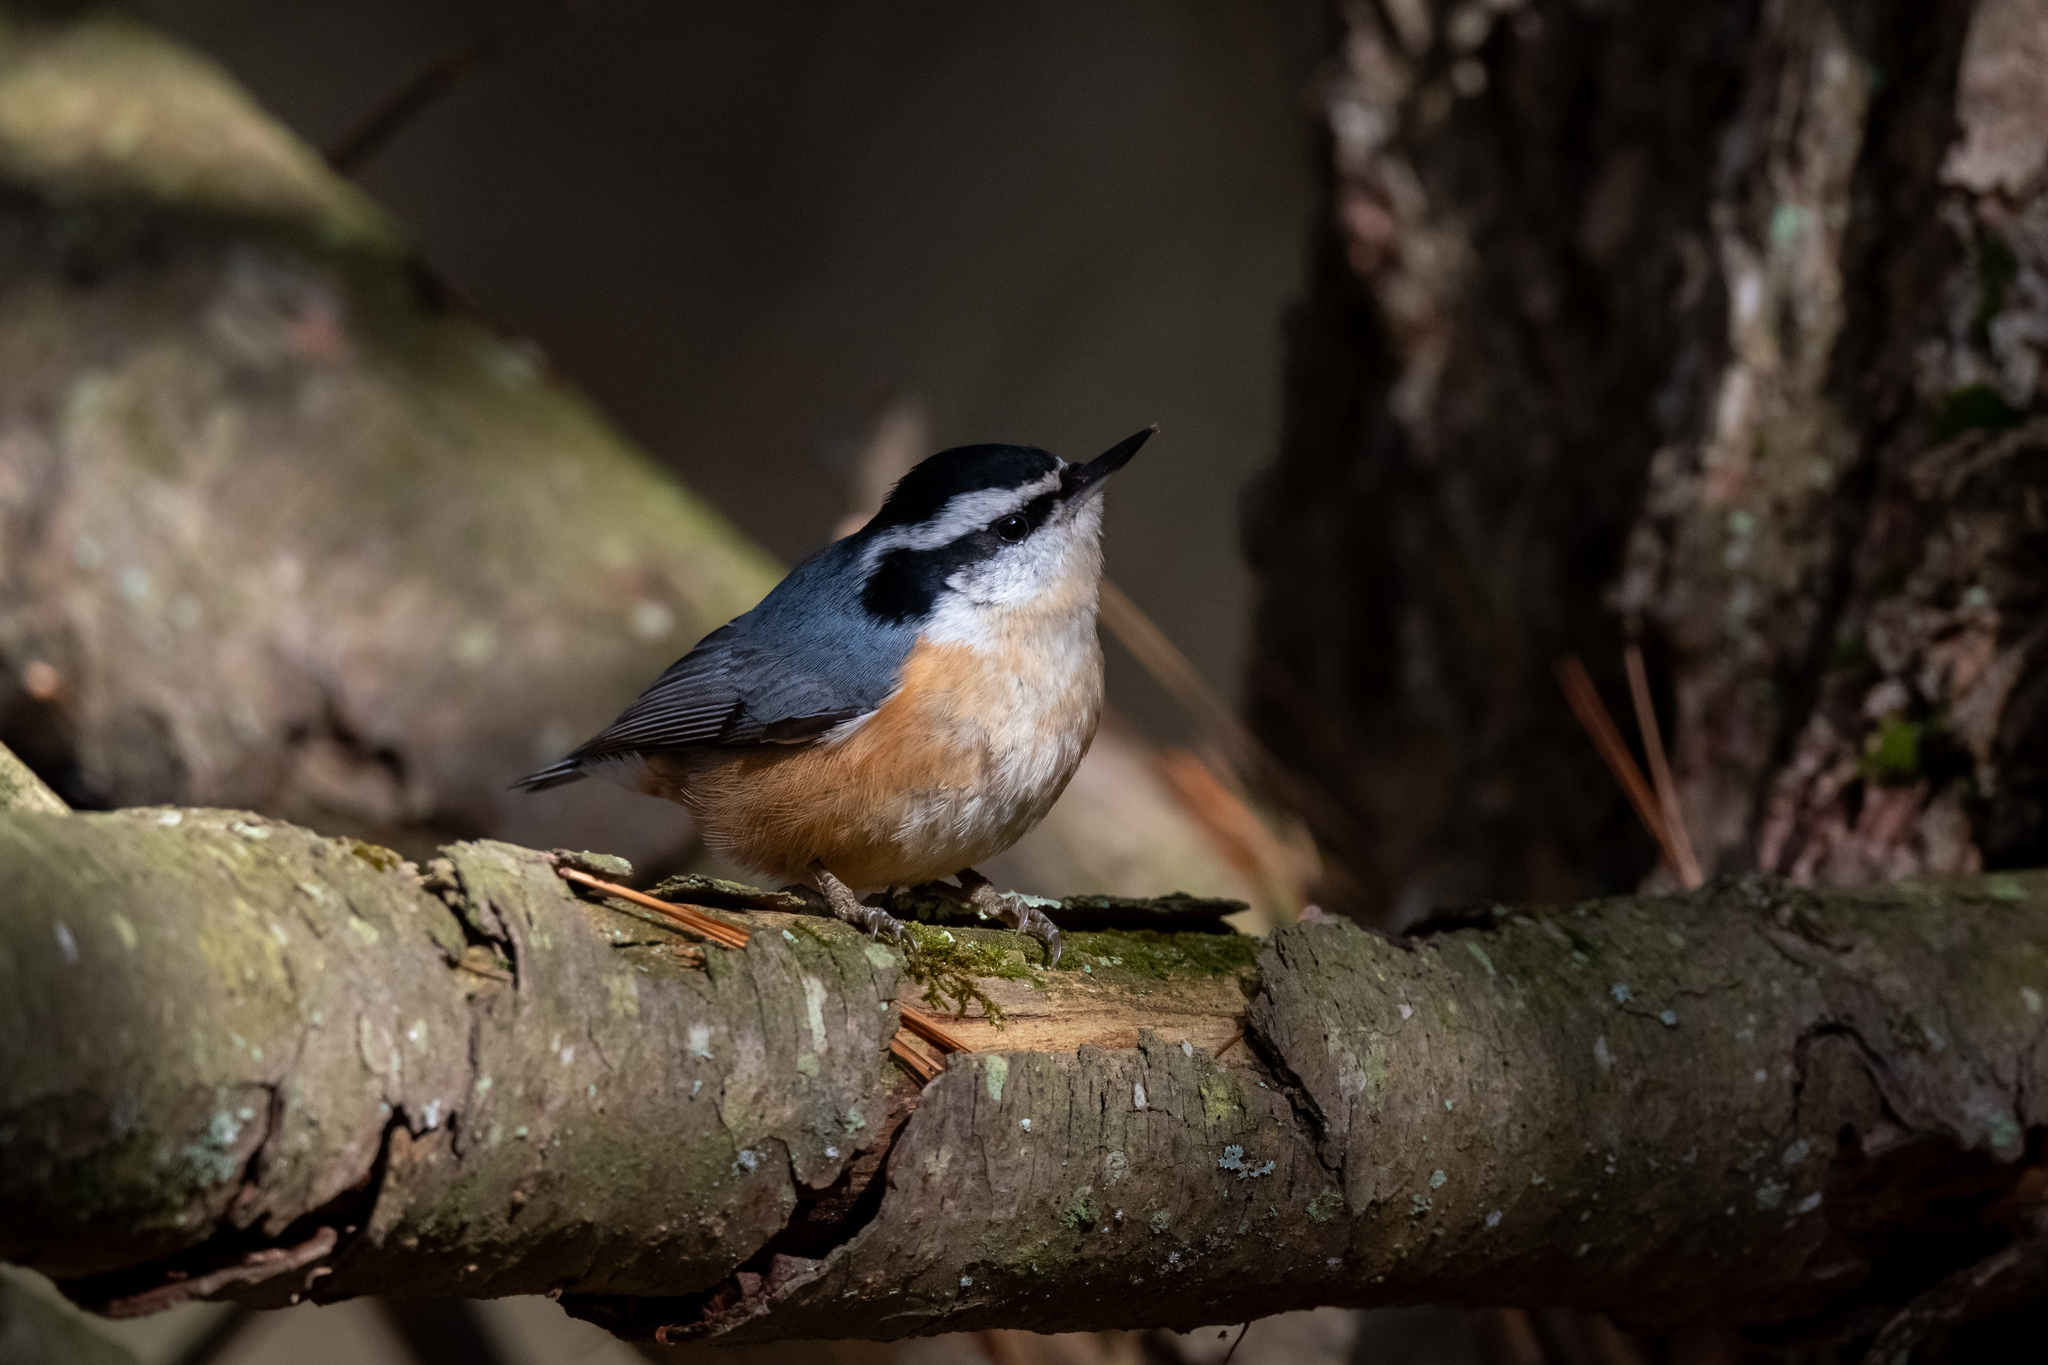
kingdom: Animalia
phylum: Chordata
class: Aves
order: Passeriformes
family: Sittidae
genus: Sitta
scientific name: Sitta canadensis
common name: Red-breasted nuthatch
